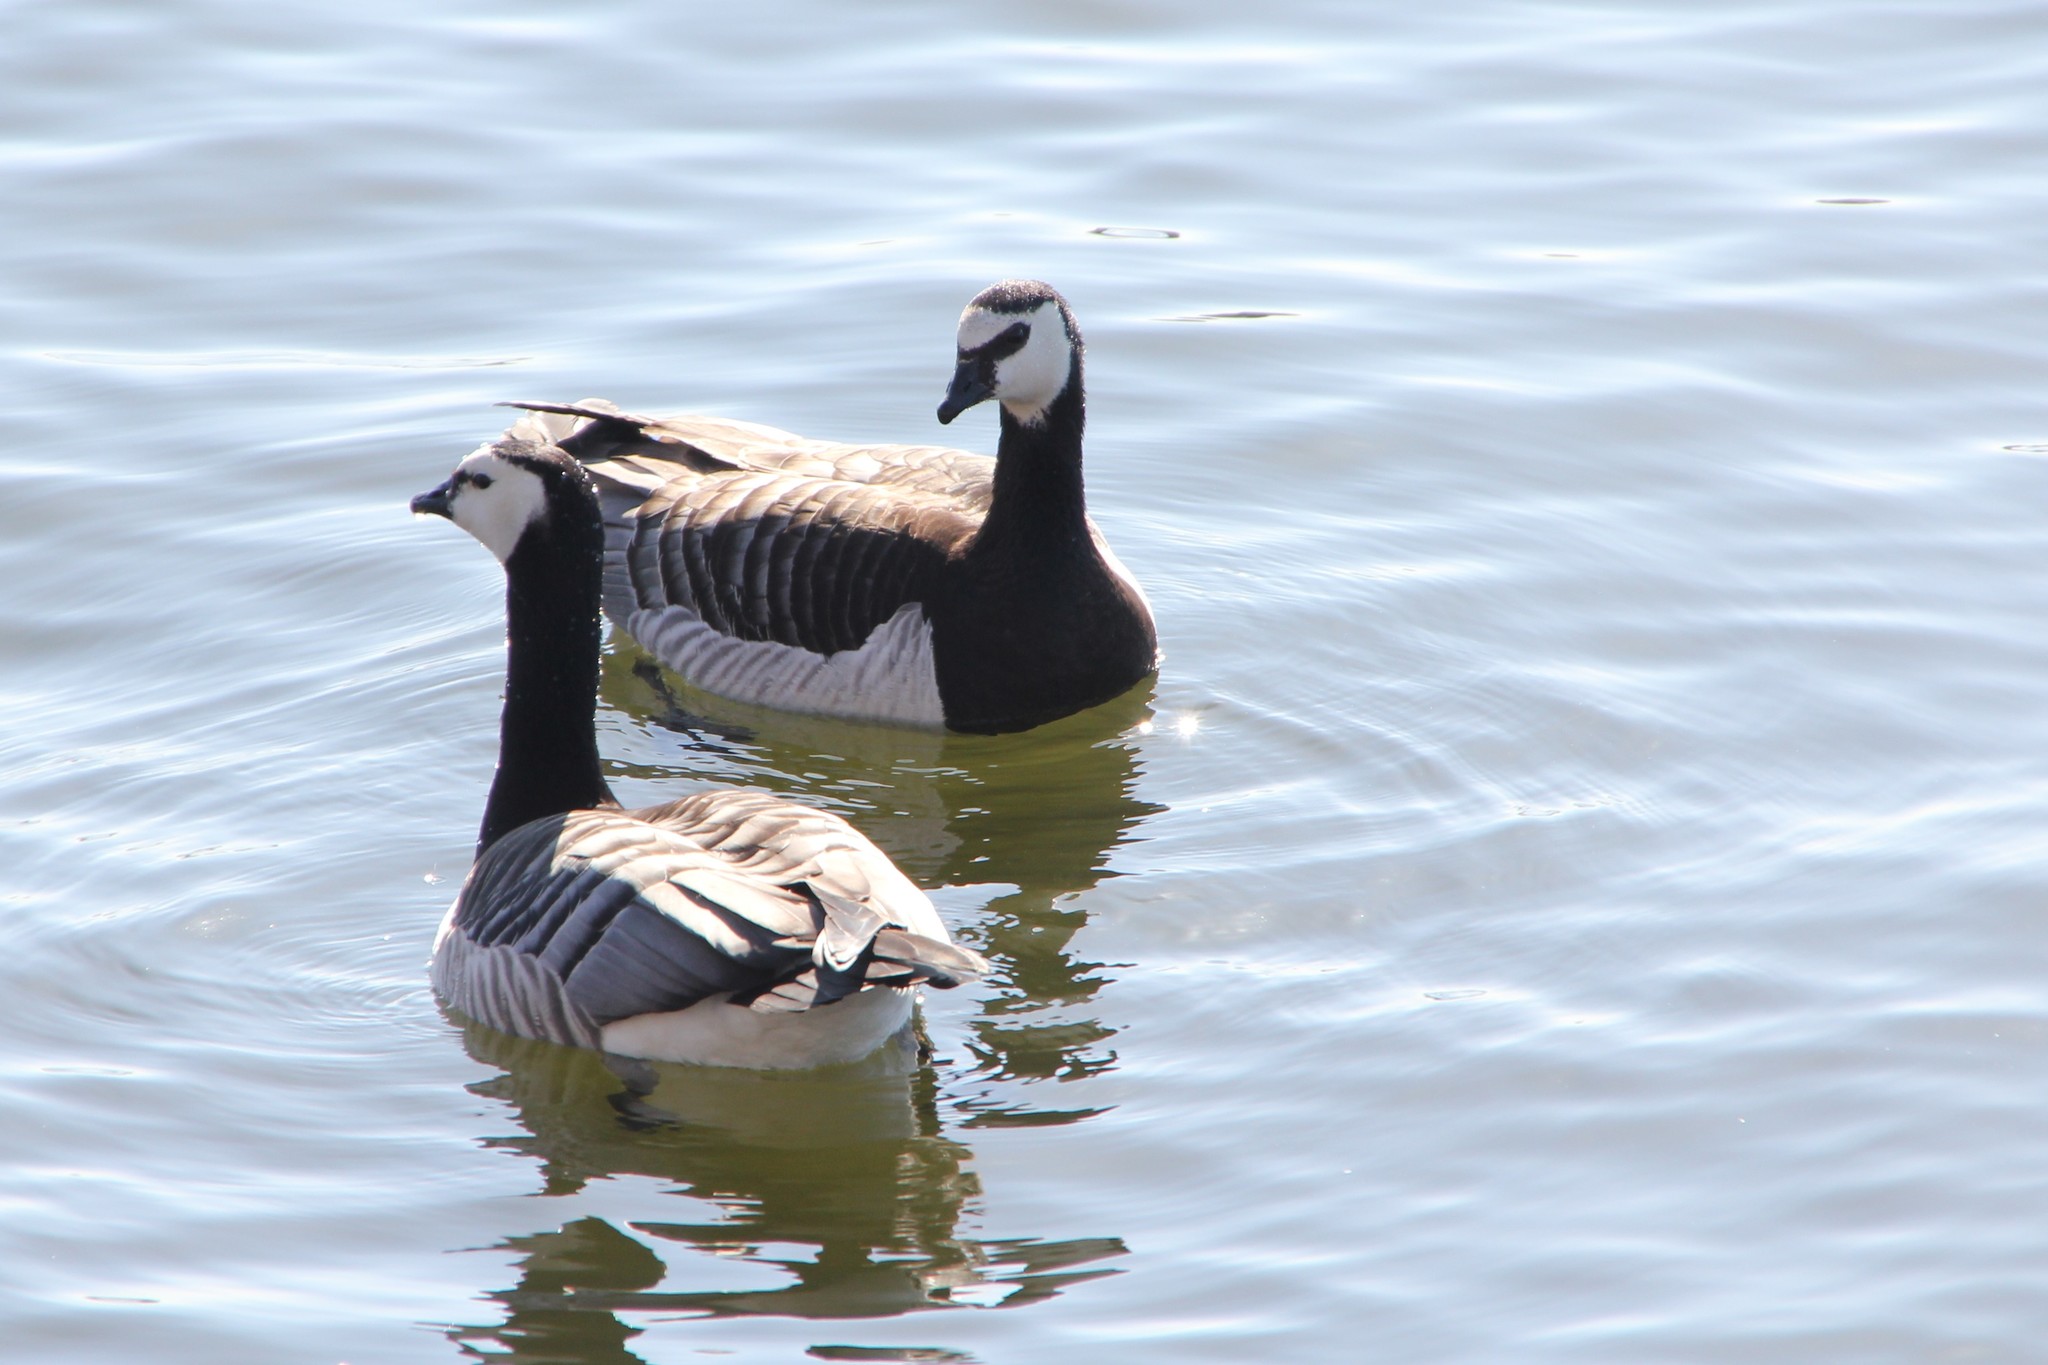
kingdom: Animalia
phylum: Chordata
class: Aves
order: Anseriformes
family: Anatidae
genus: Branta
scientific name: Branta leucopsis
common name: Barnacle goose
